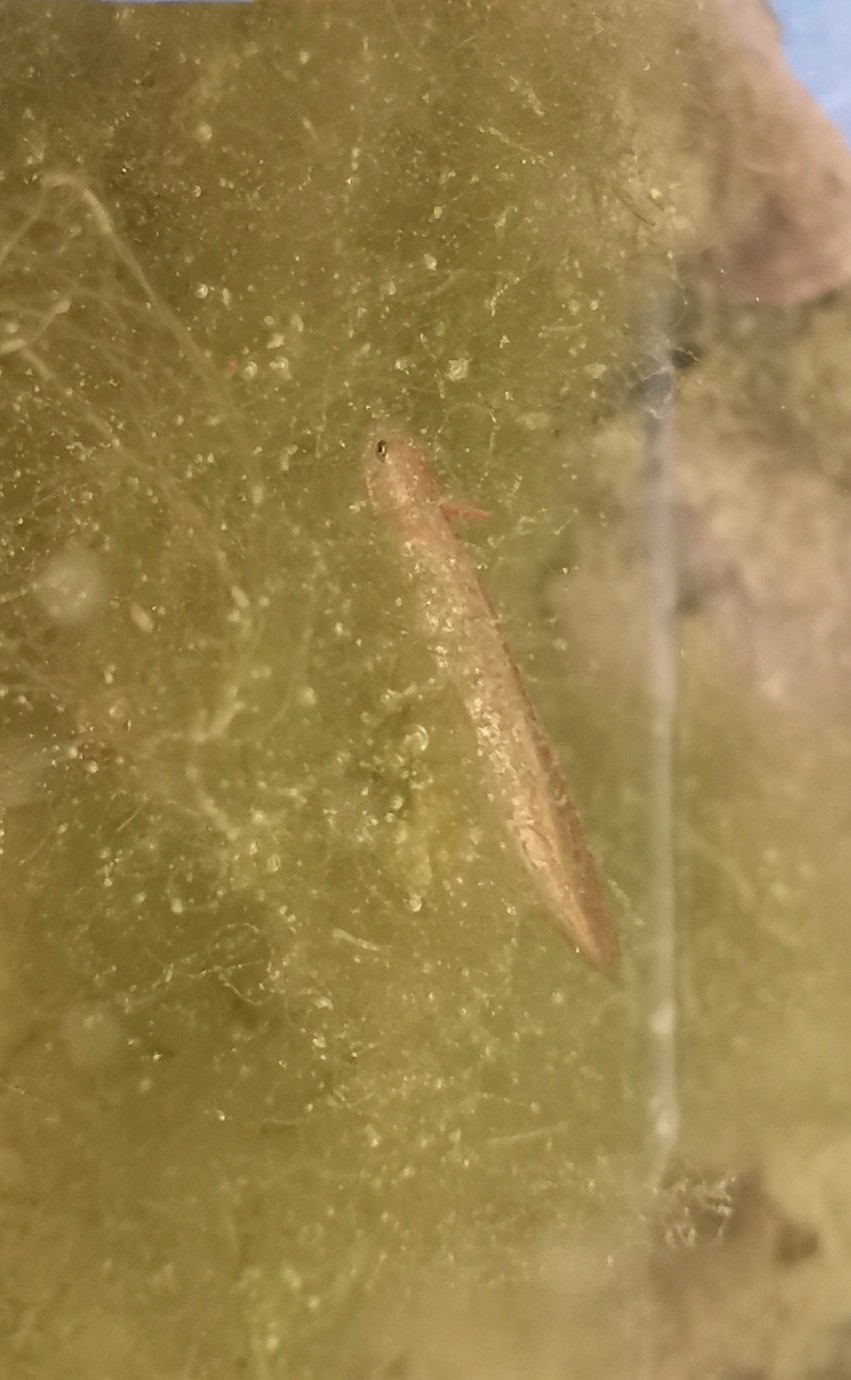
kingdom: Animalia
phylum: Chordata
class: Amphibia
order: Caudata
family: Salamandridae
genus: Lissotriton
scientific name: Lissotriton italicus
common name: Italian newt
